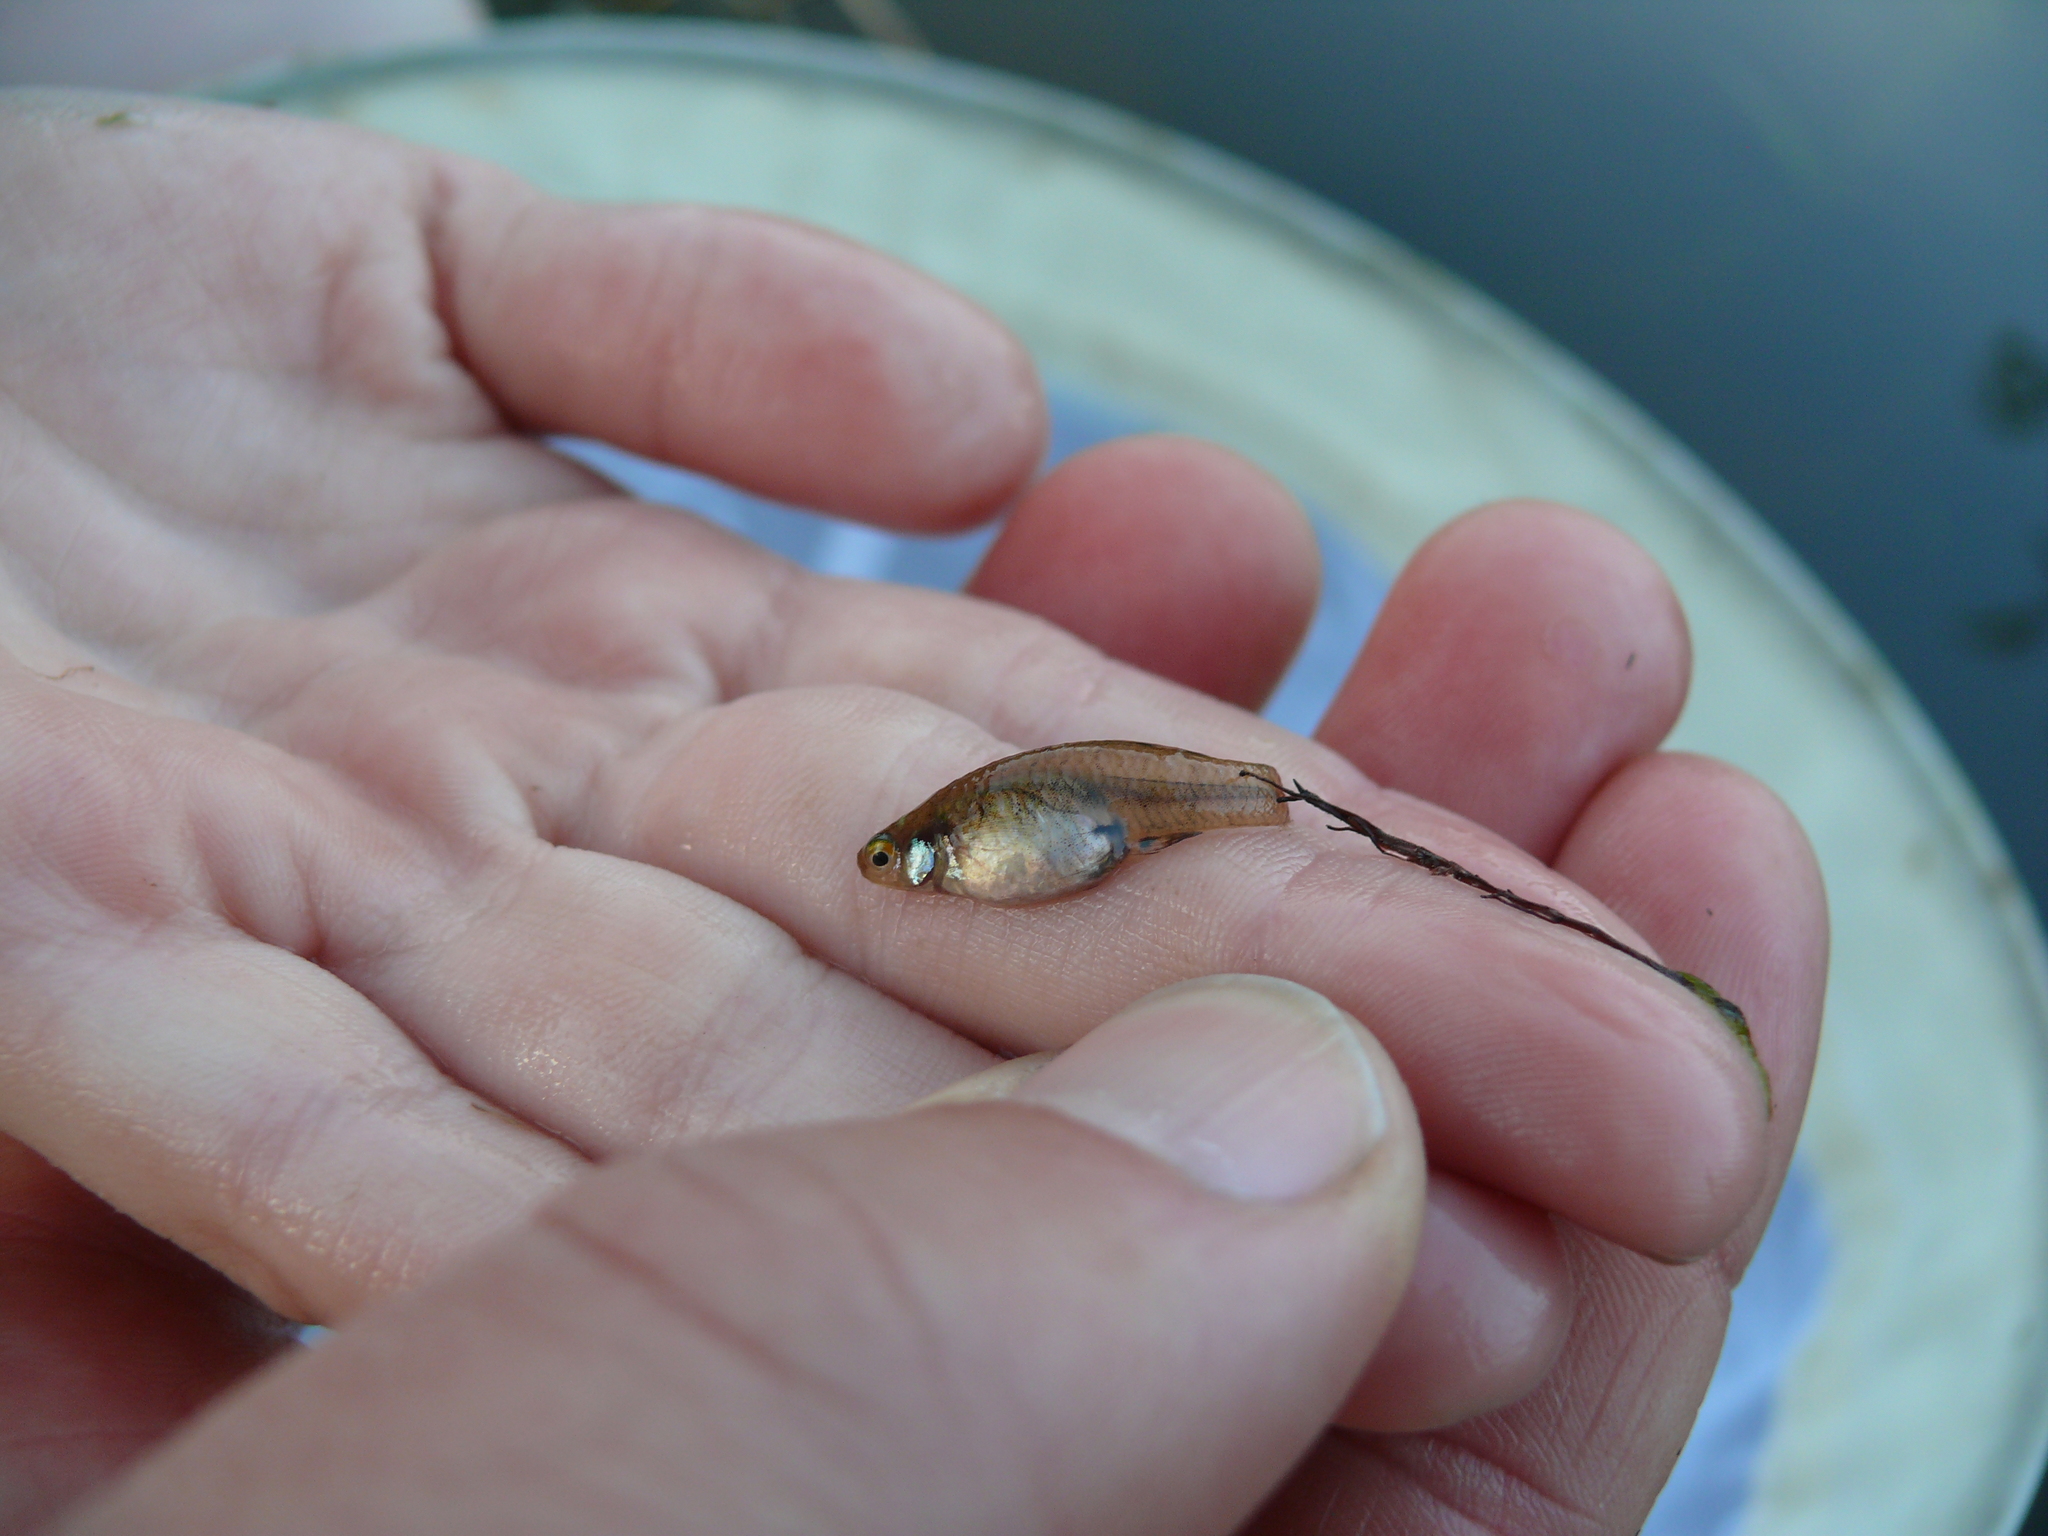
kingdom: Animalia
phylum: Chordata
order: Cyprinodontiformes
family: Poeciliidae
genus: Heterandria
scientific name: Heterandria formosa
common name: Least killifish
